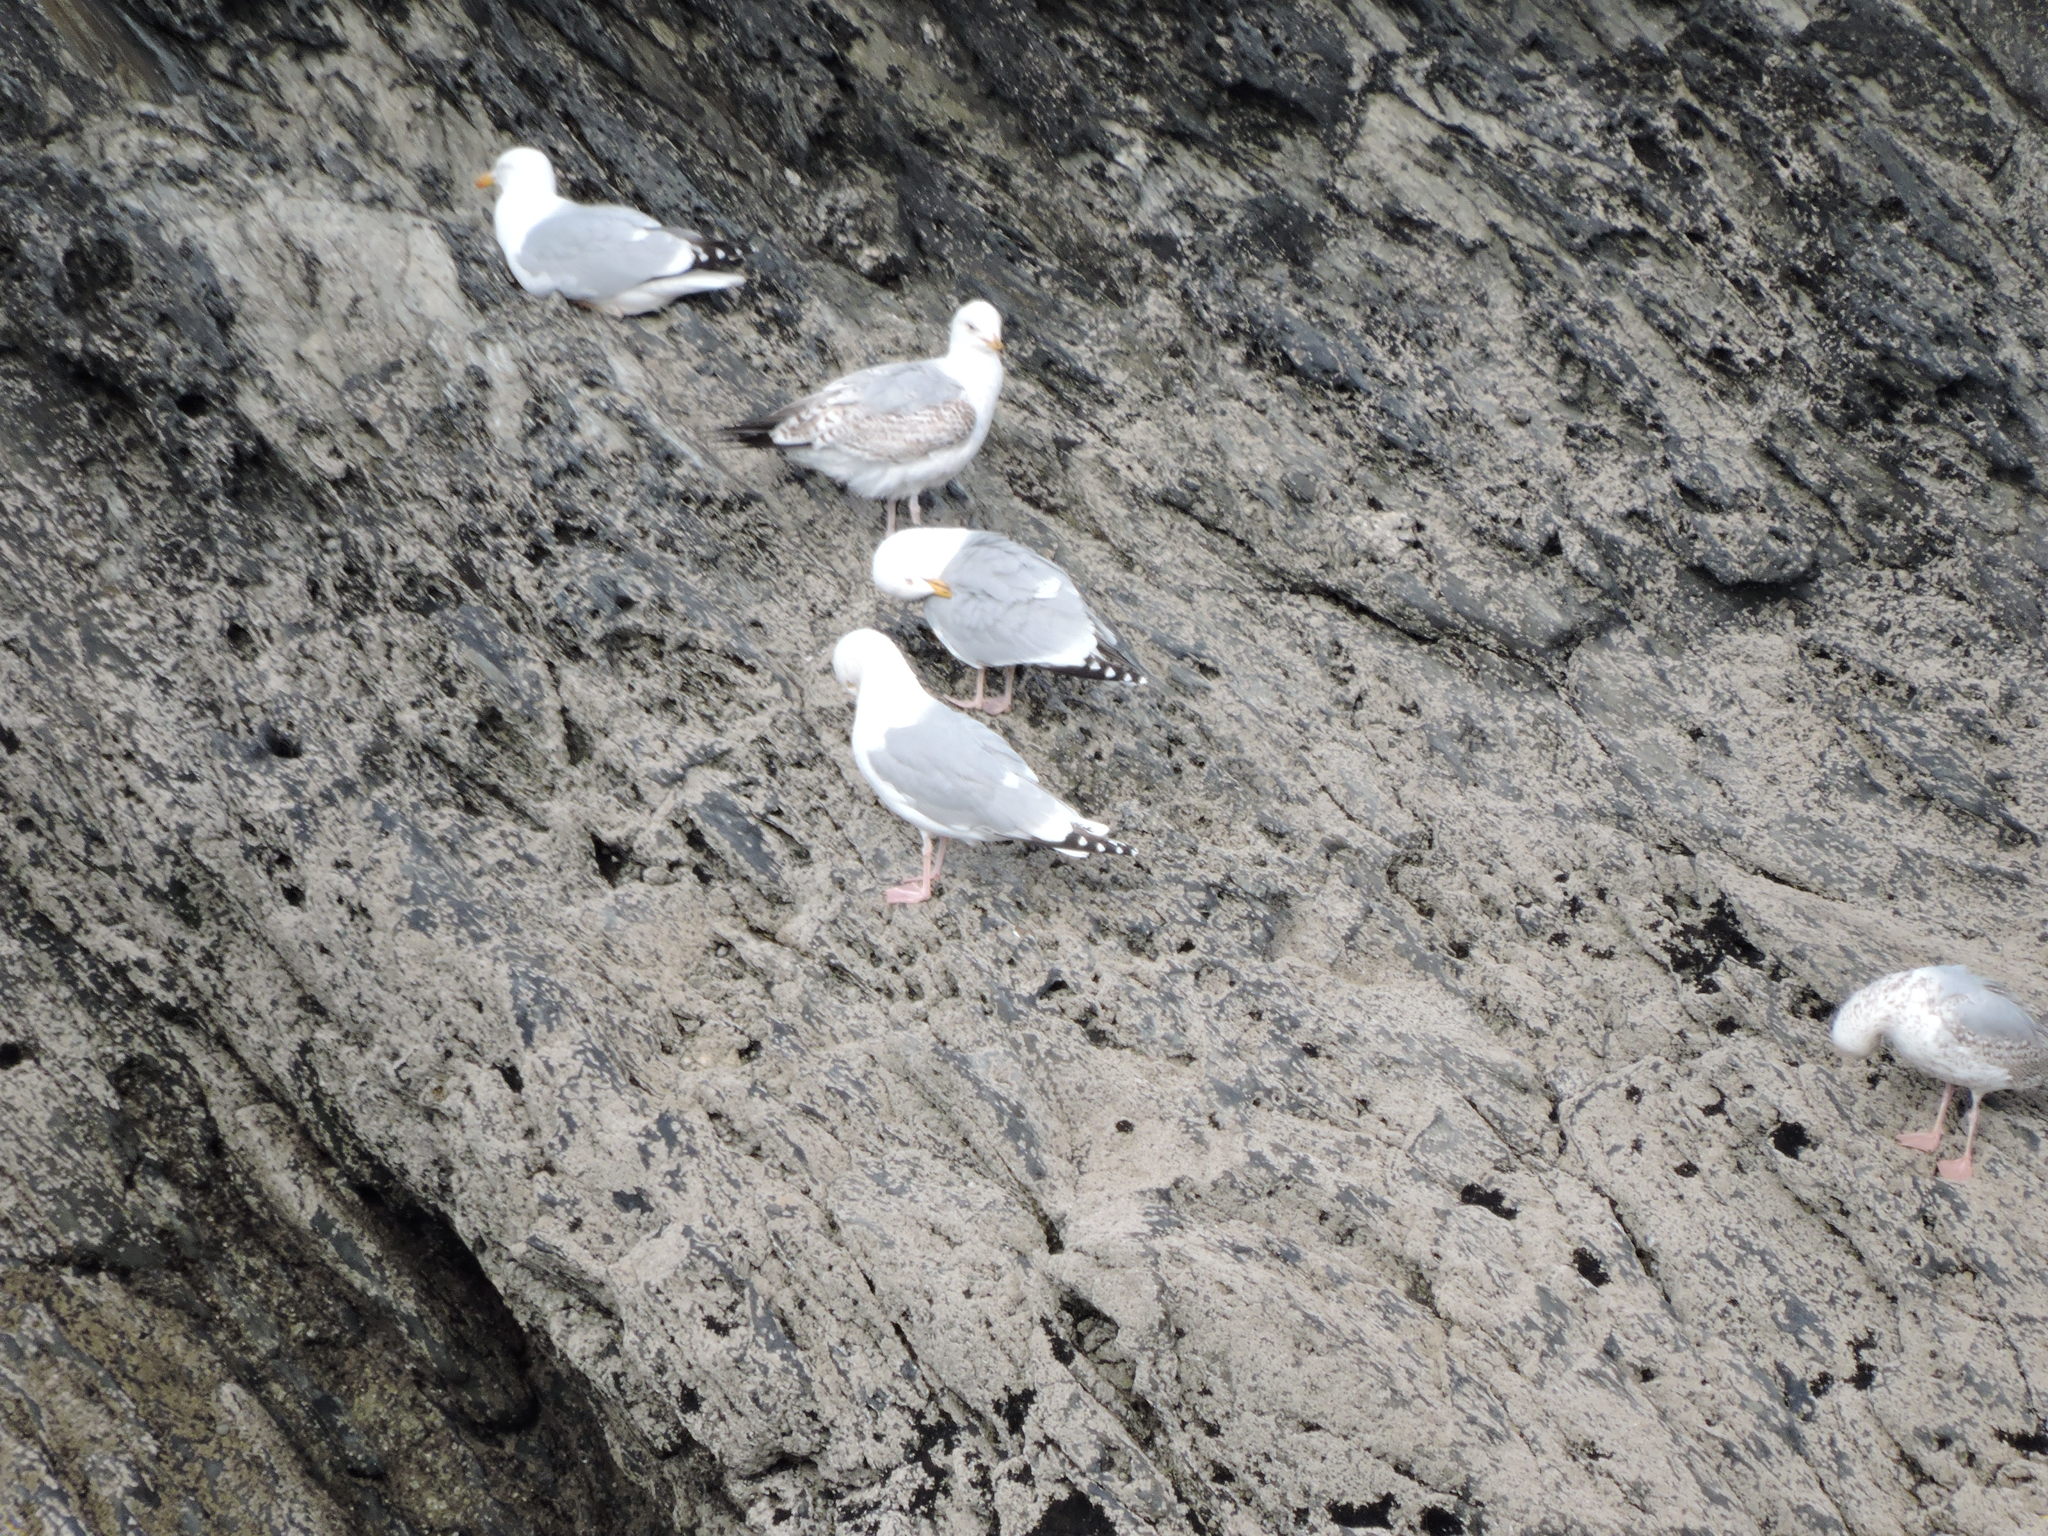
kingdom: Animalia
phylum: Chordata
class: Aves
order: Charadriiformes
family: Laridae
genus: Larus
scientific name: Larus argentatus
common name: Herring gull
